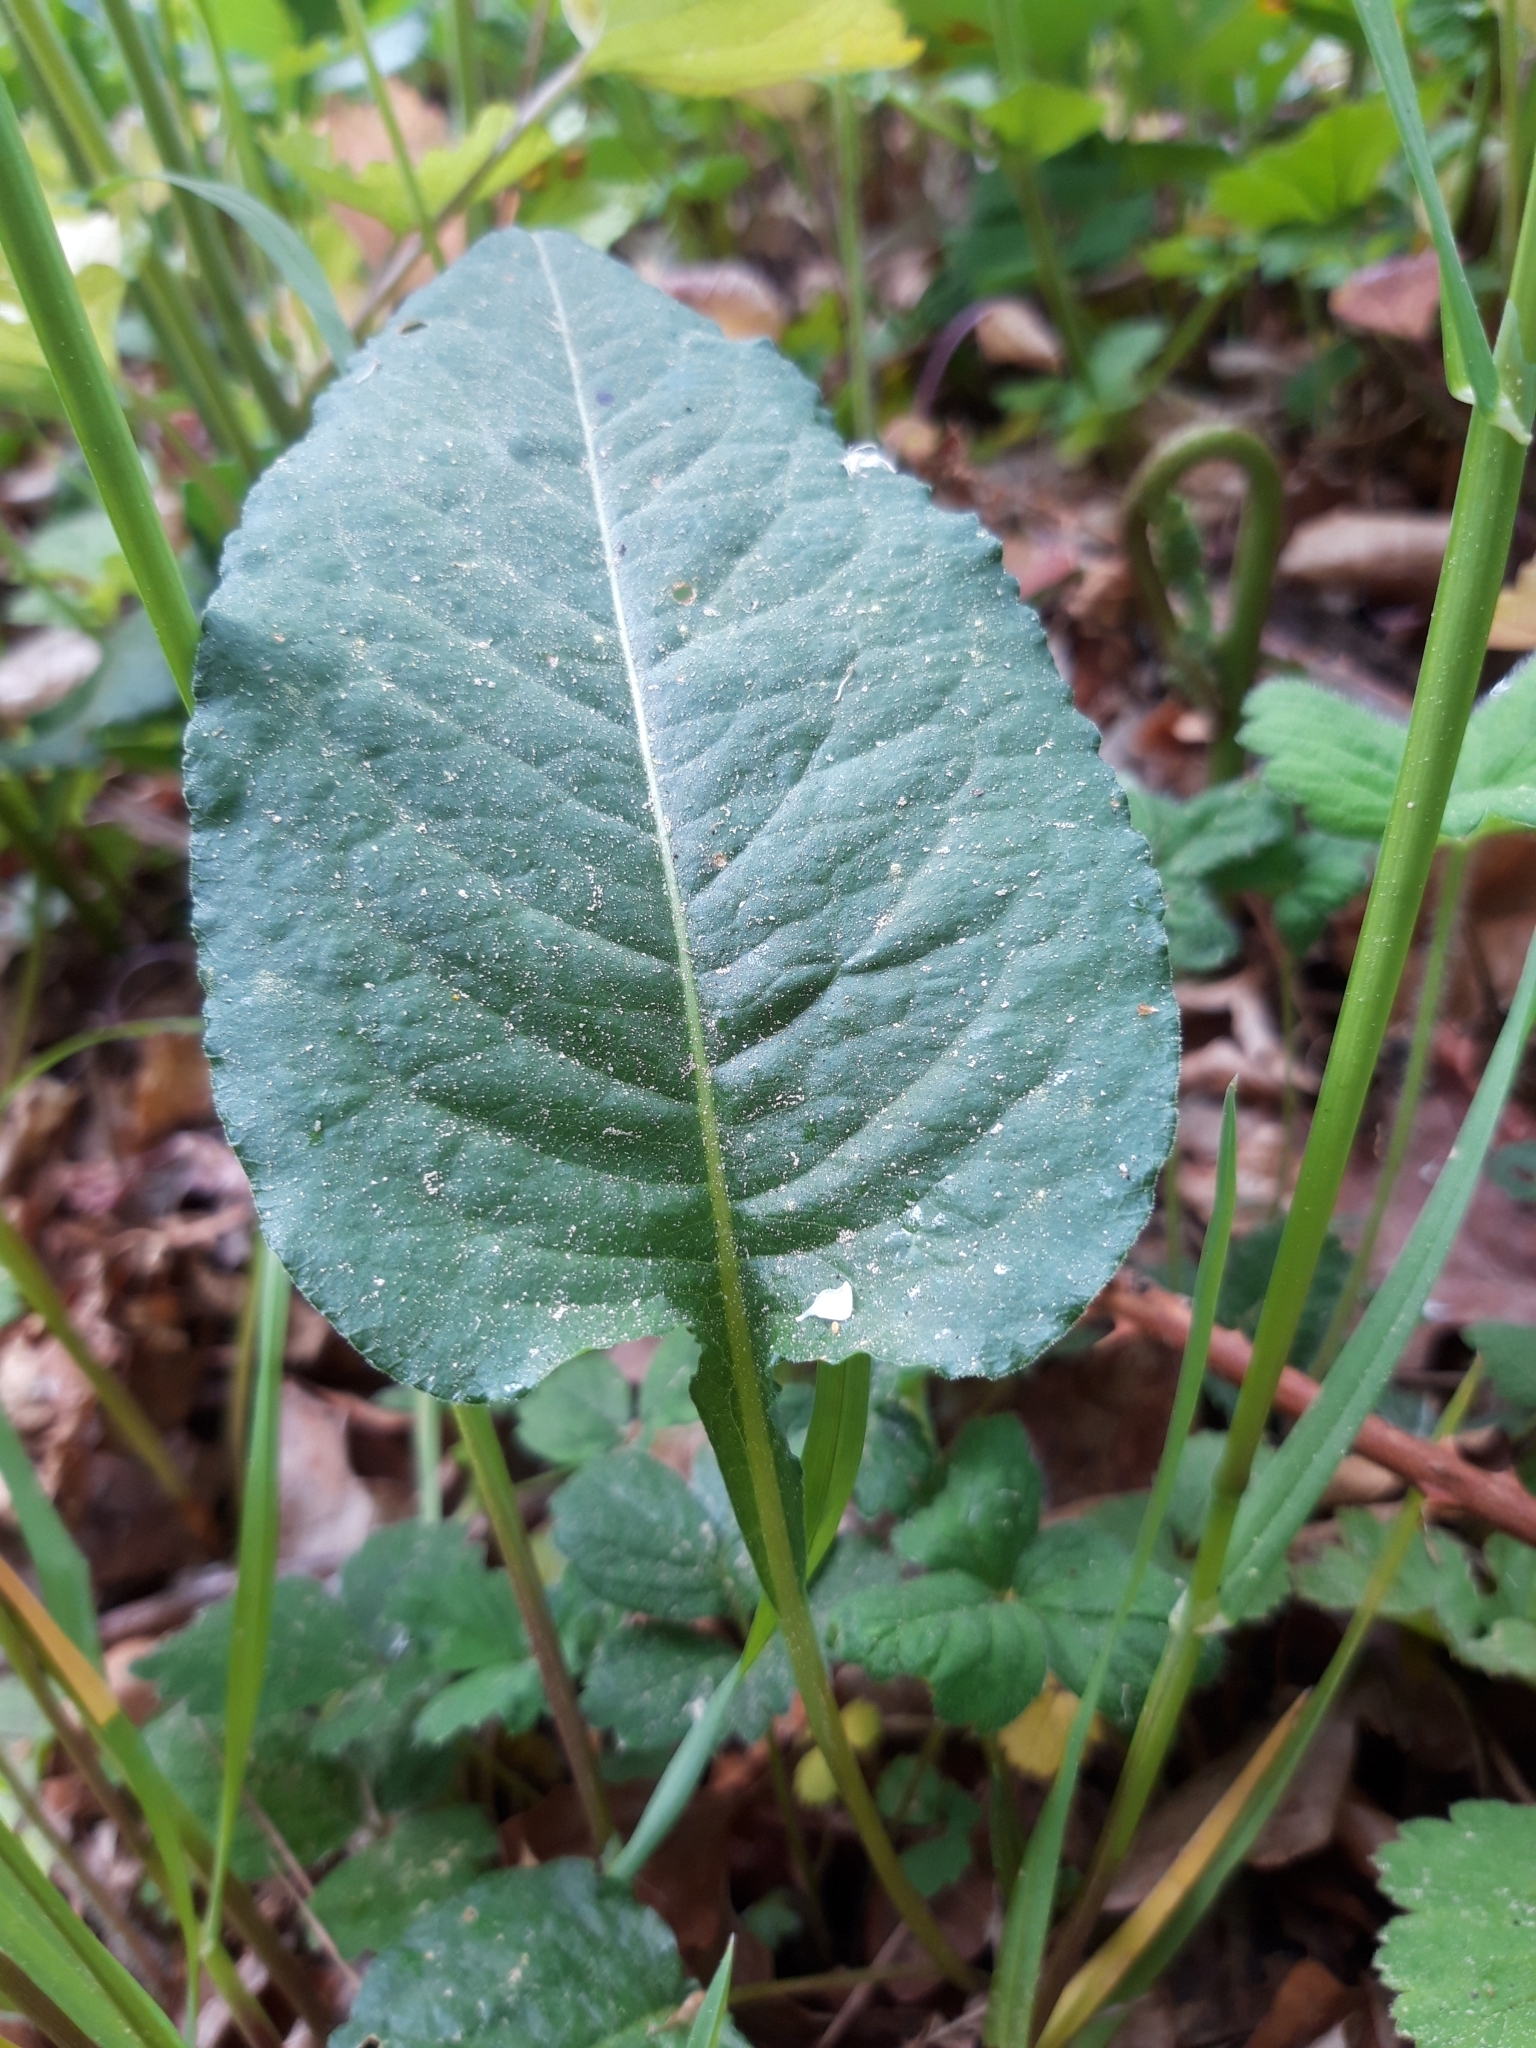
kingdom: Plantae
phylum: Tracheophyta
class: Magnoliopsida
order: Caryophyllales
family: Polygonaceae
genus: Bistorta
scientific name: Bistorta officinalis
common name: Common bistort
